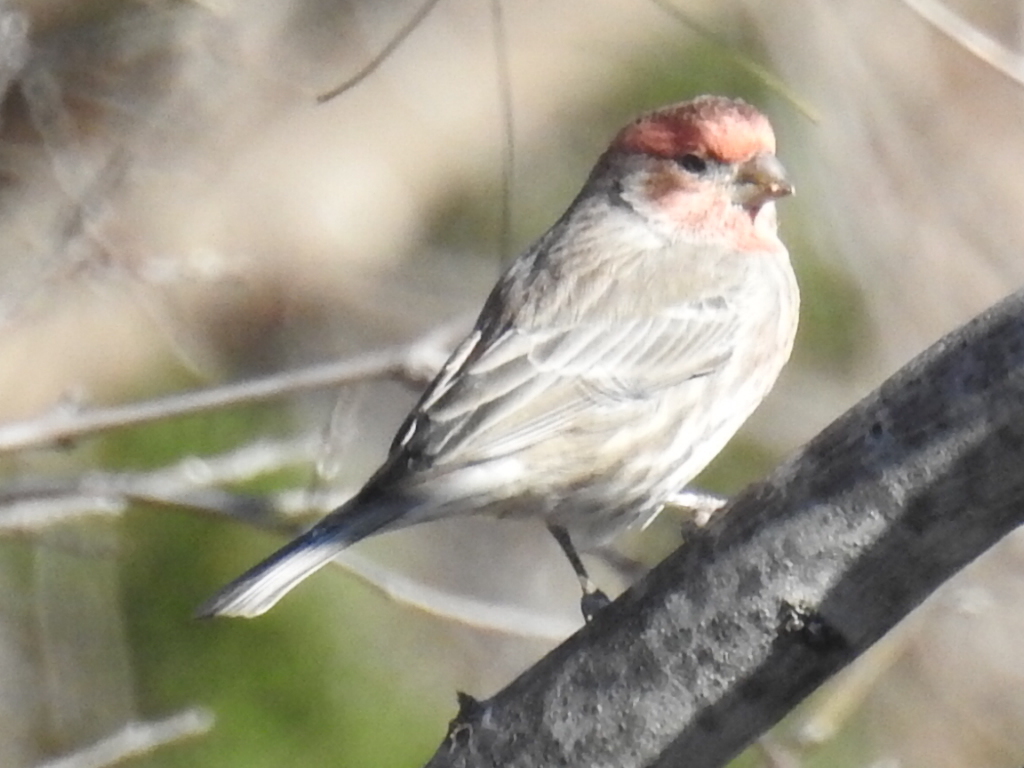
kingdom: Animalia
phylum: Chordata
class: Aves
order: Passeriformes
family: Fringillidae
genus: Haemorhous
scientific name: Haemorhous mexicanus
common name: House finch
